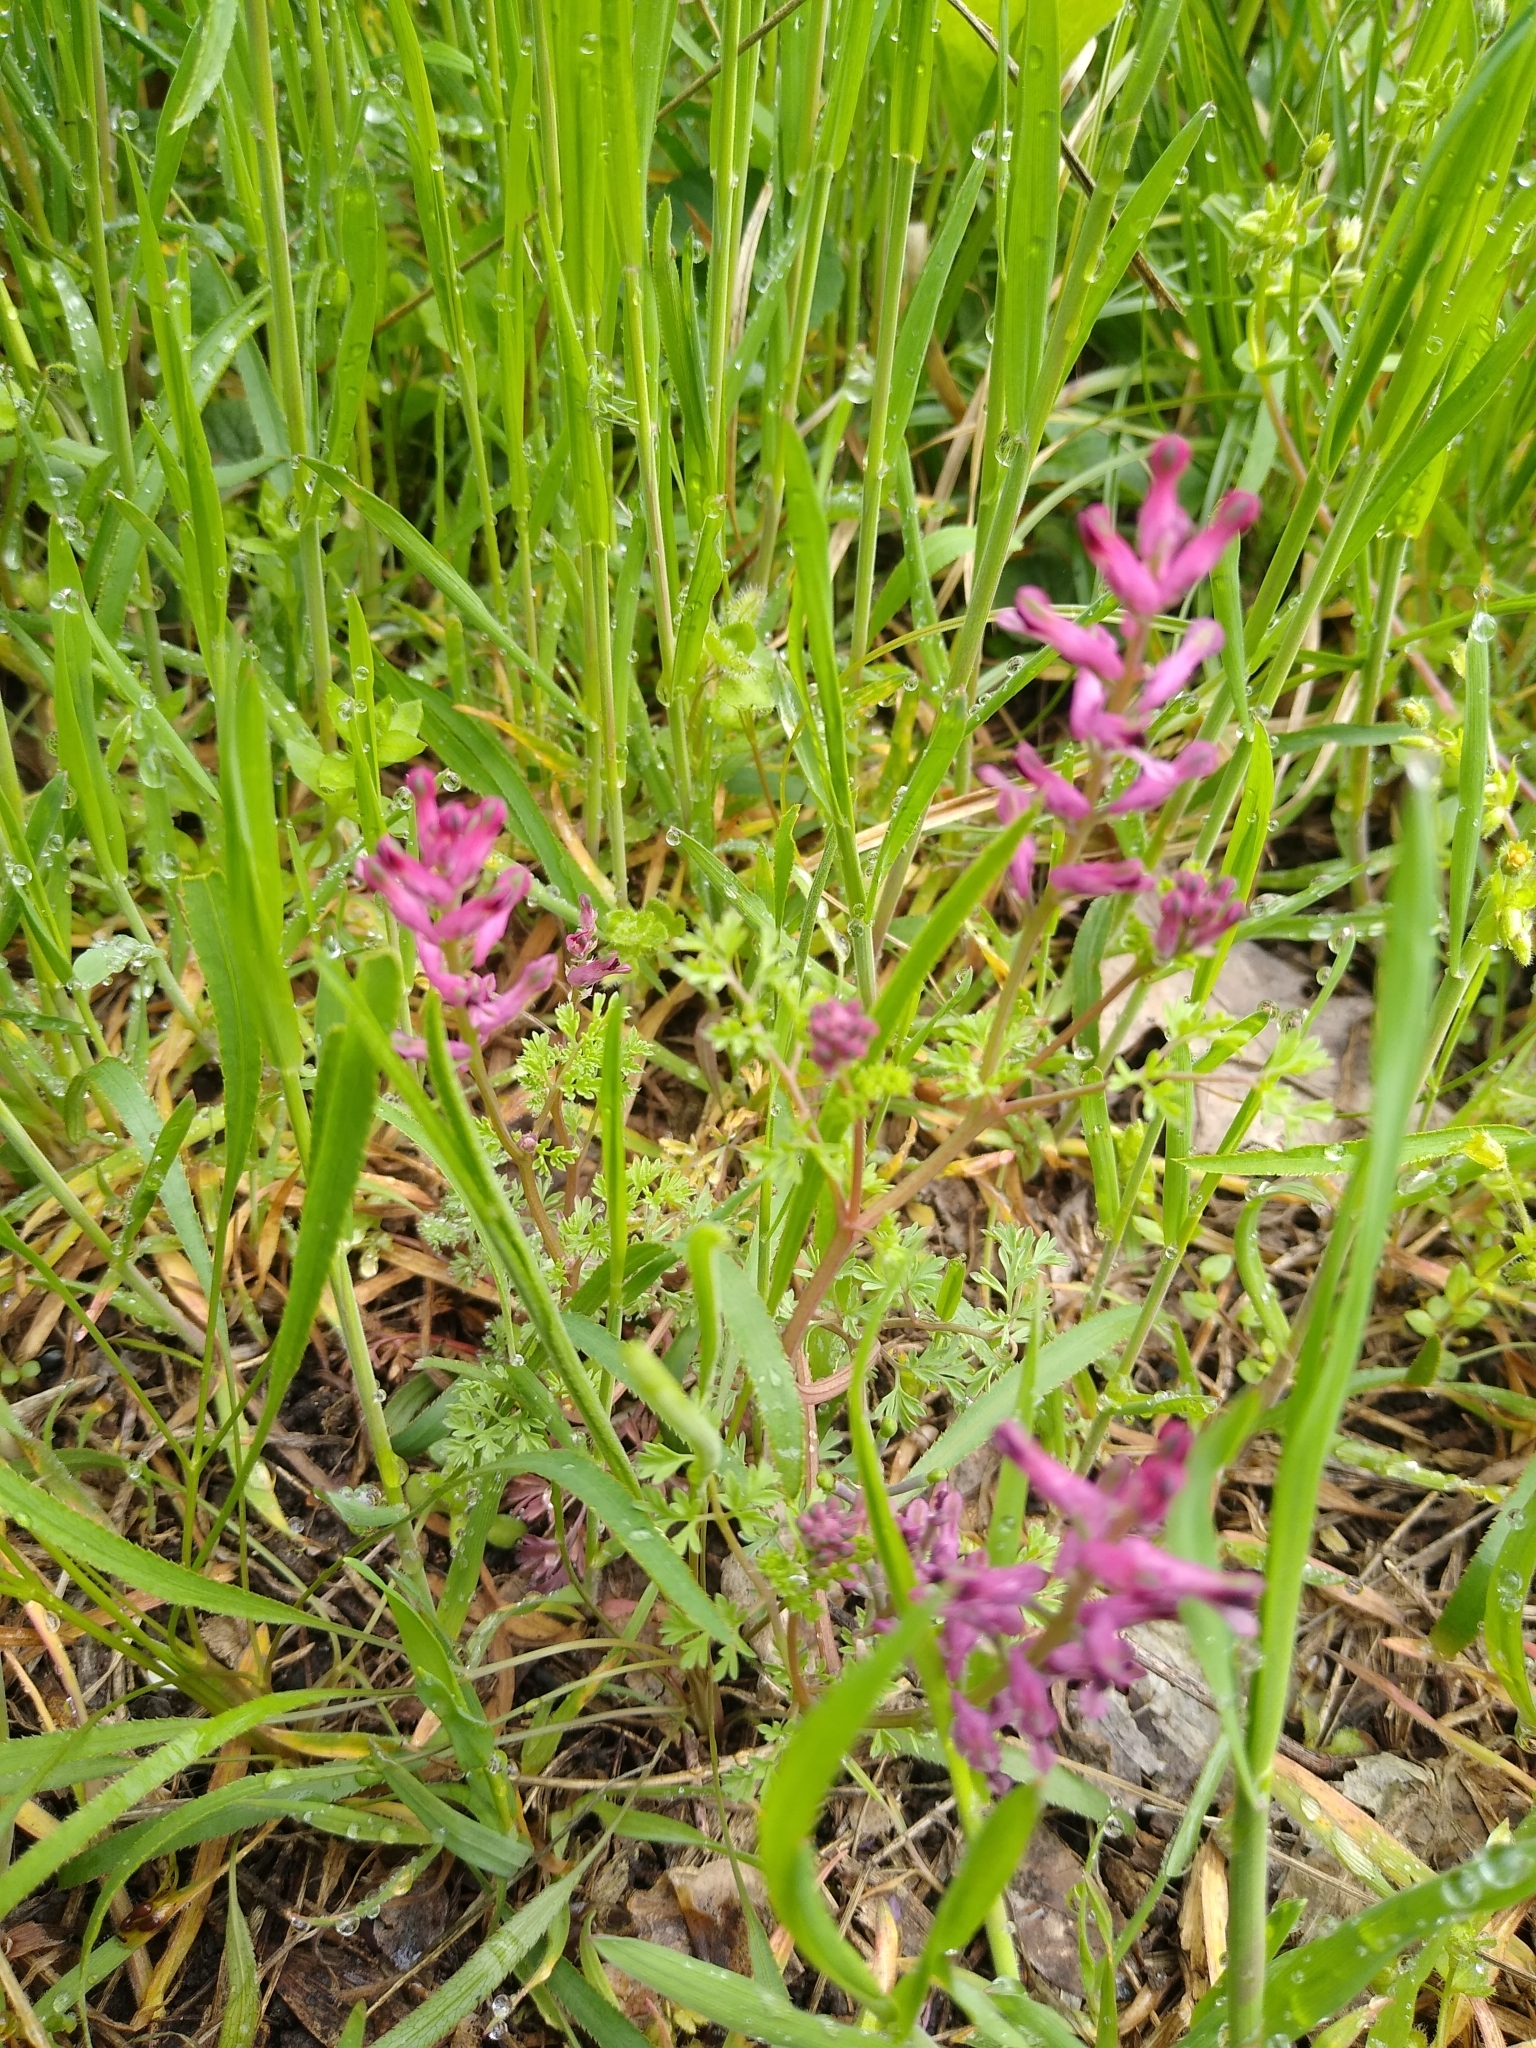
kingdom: Plantae
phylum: Tracheophyta
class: Magnoliopsida
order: Ranunculales
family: Papaveraceae
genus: Fumaria
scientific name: Fumaria officinalis
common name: Common fumitory
